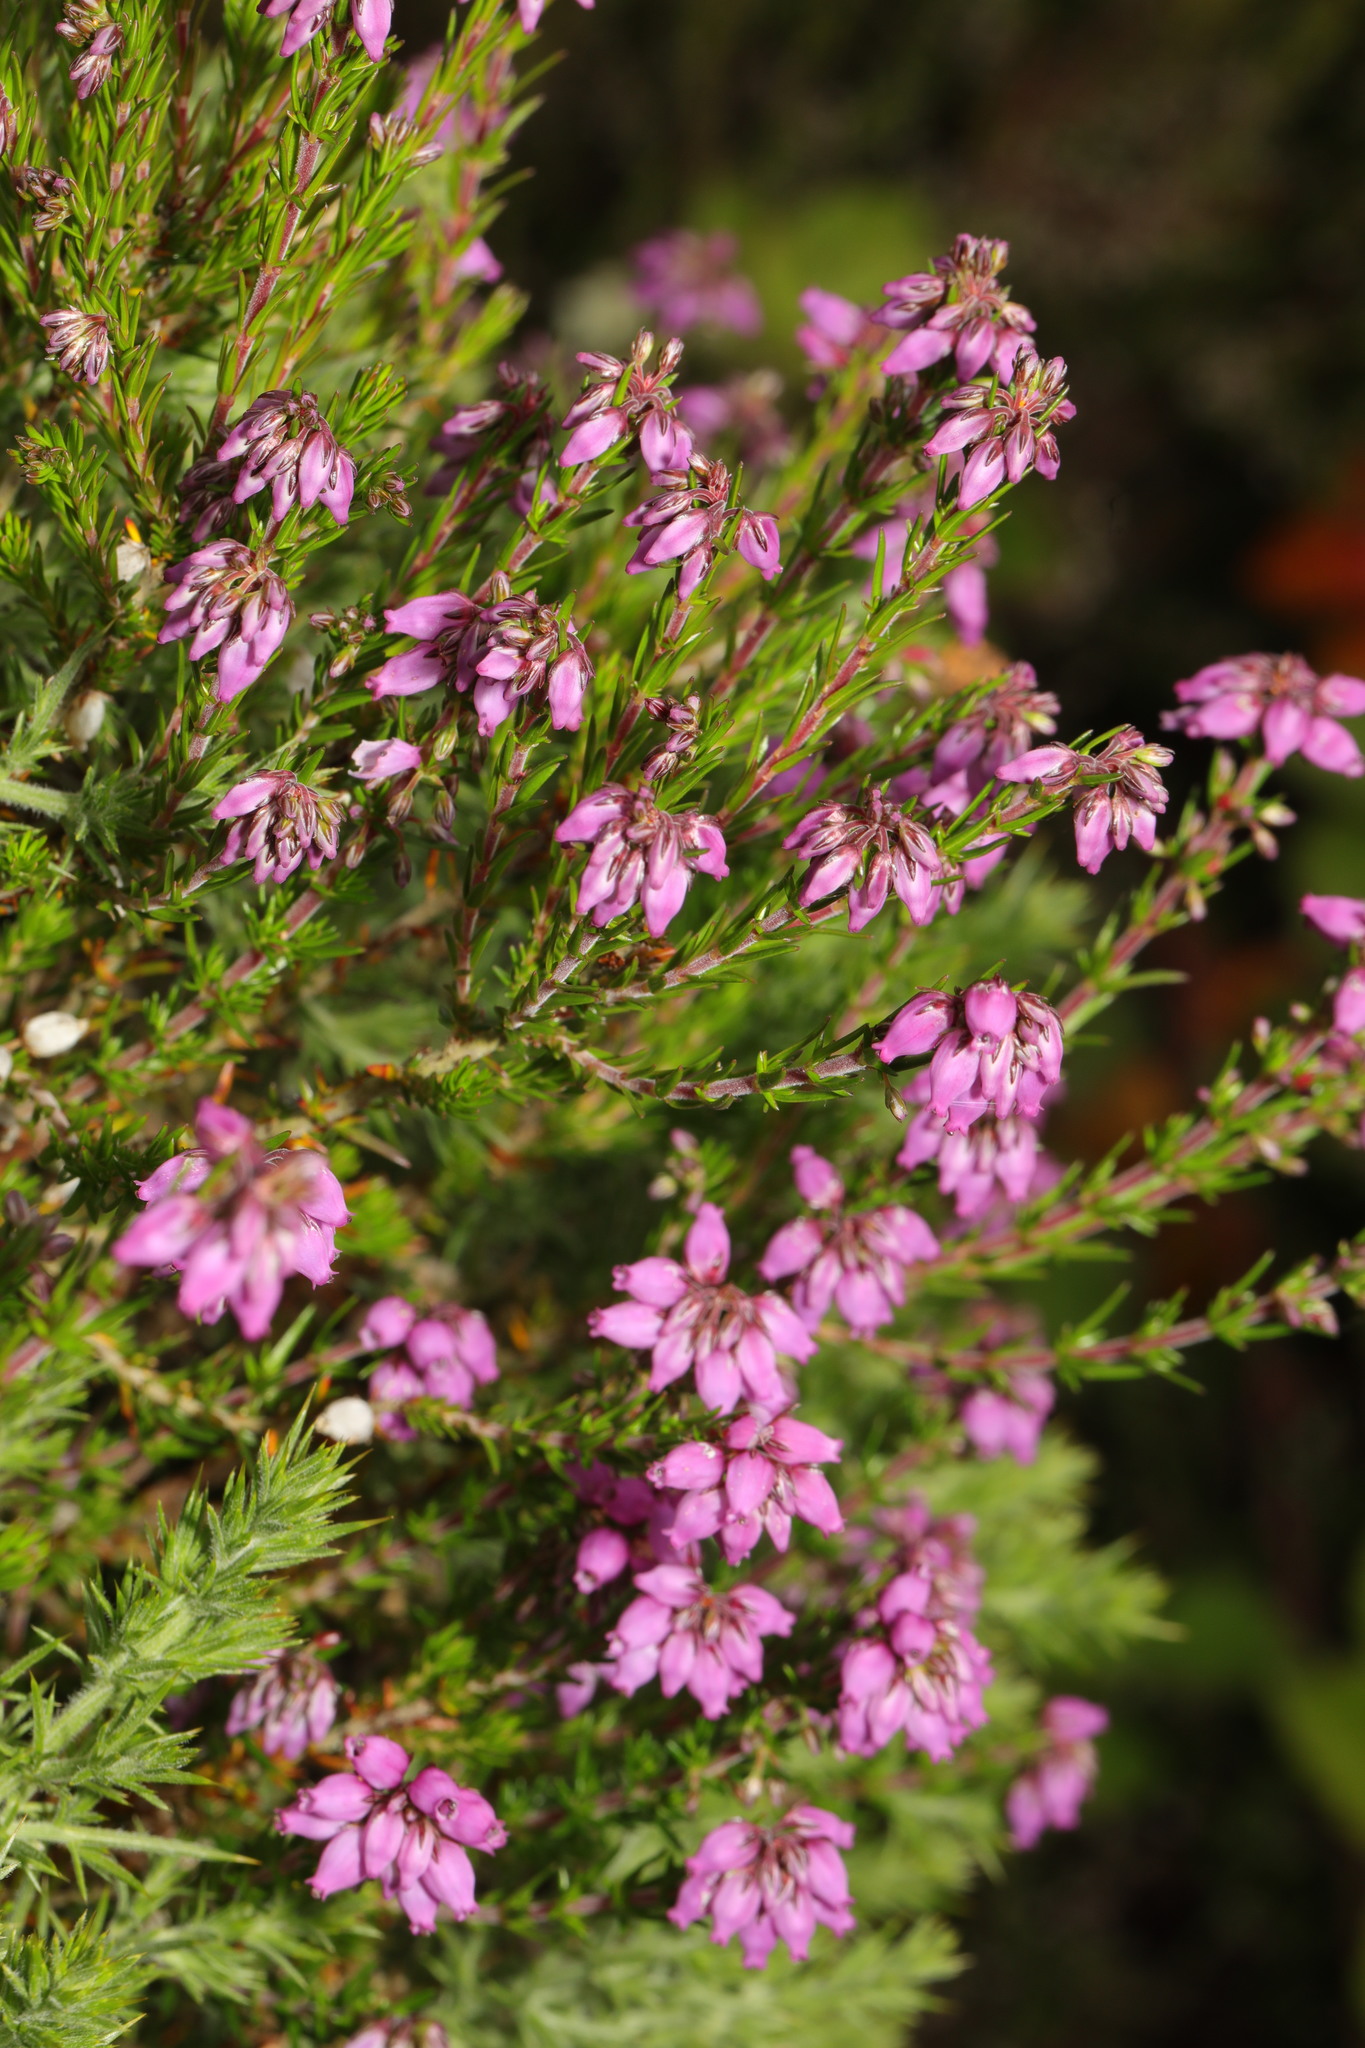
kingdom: Plantae
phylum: Tracheophyta
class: Magnoliopsida
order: Ericales
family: Ericaceae
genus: Erica
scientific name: Erica cinerea
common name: Bell heather
